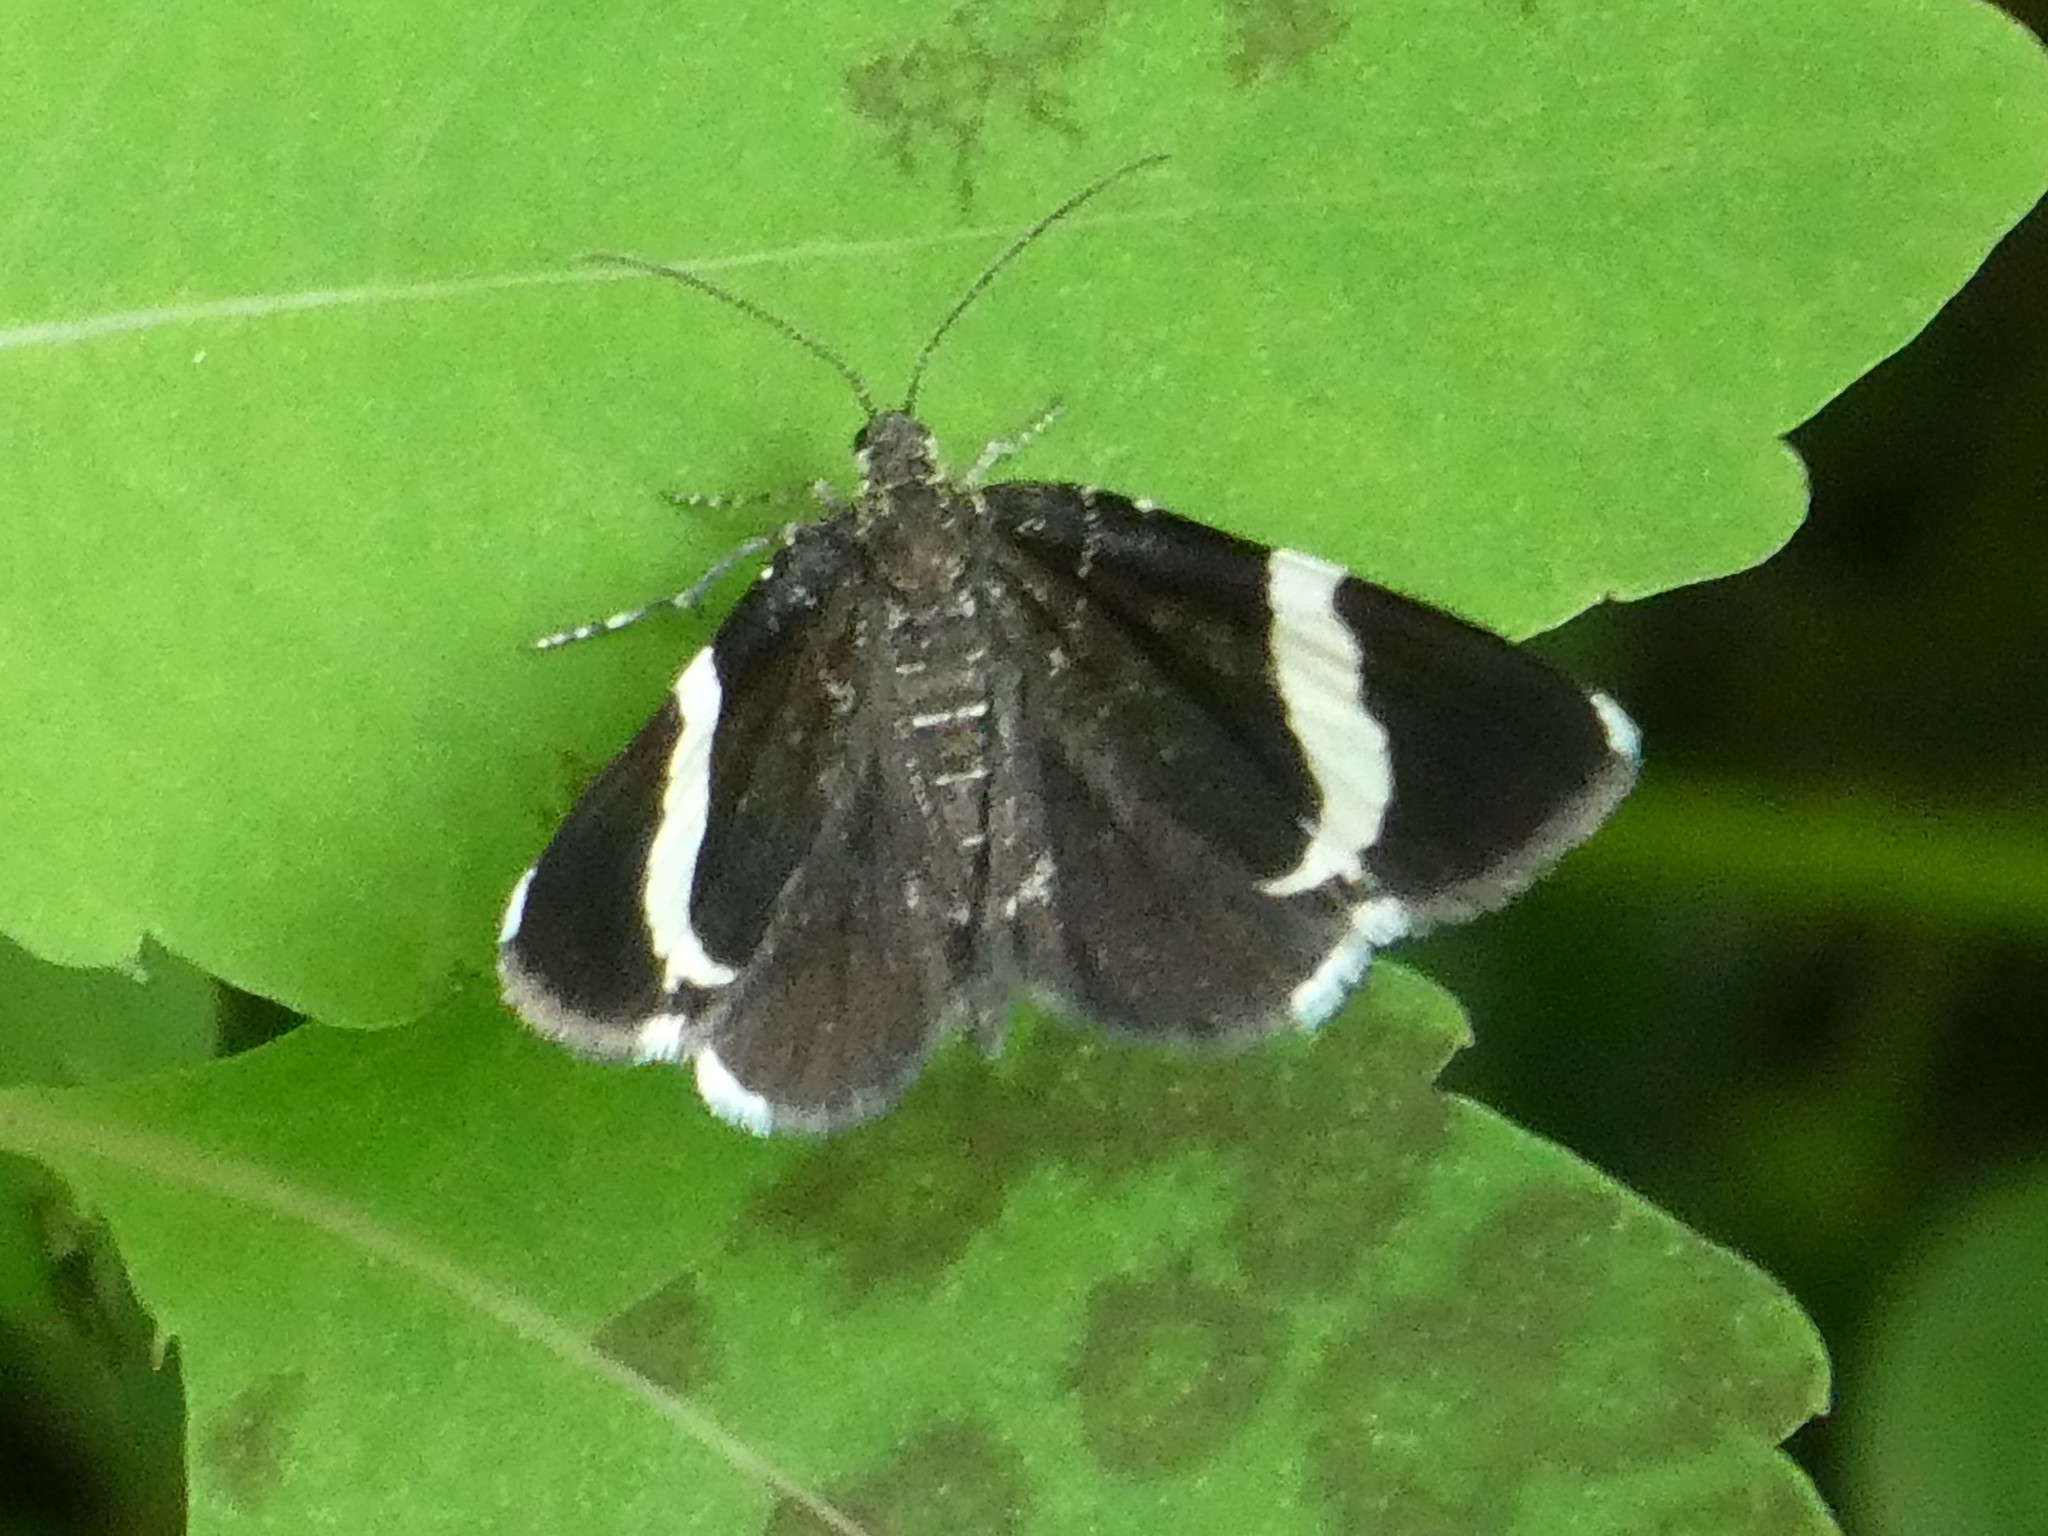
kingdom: Animalia
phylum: Arthropoda
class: Insecta
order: Lepidoptera
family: Geometridae
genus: Trichodezia
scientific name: Trichodezia albovittata
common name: White striped black
